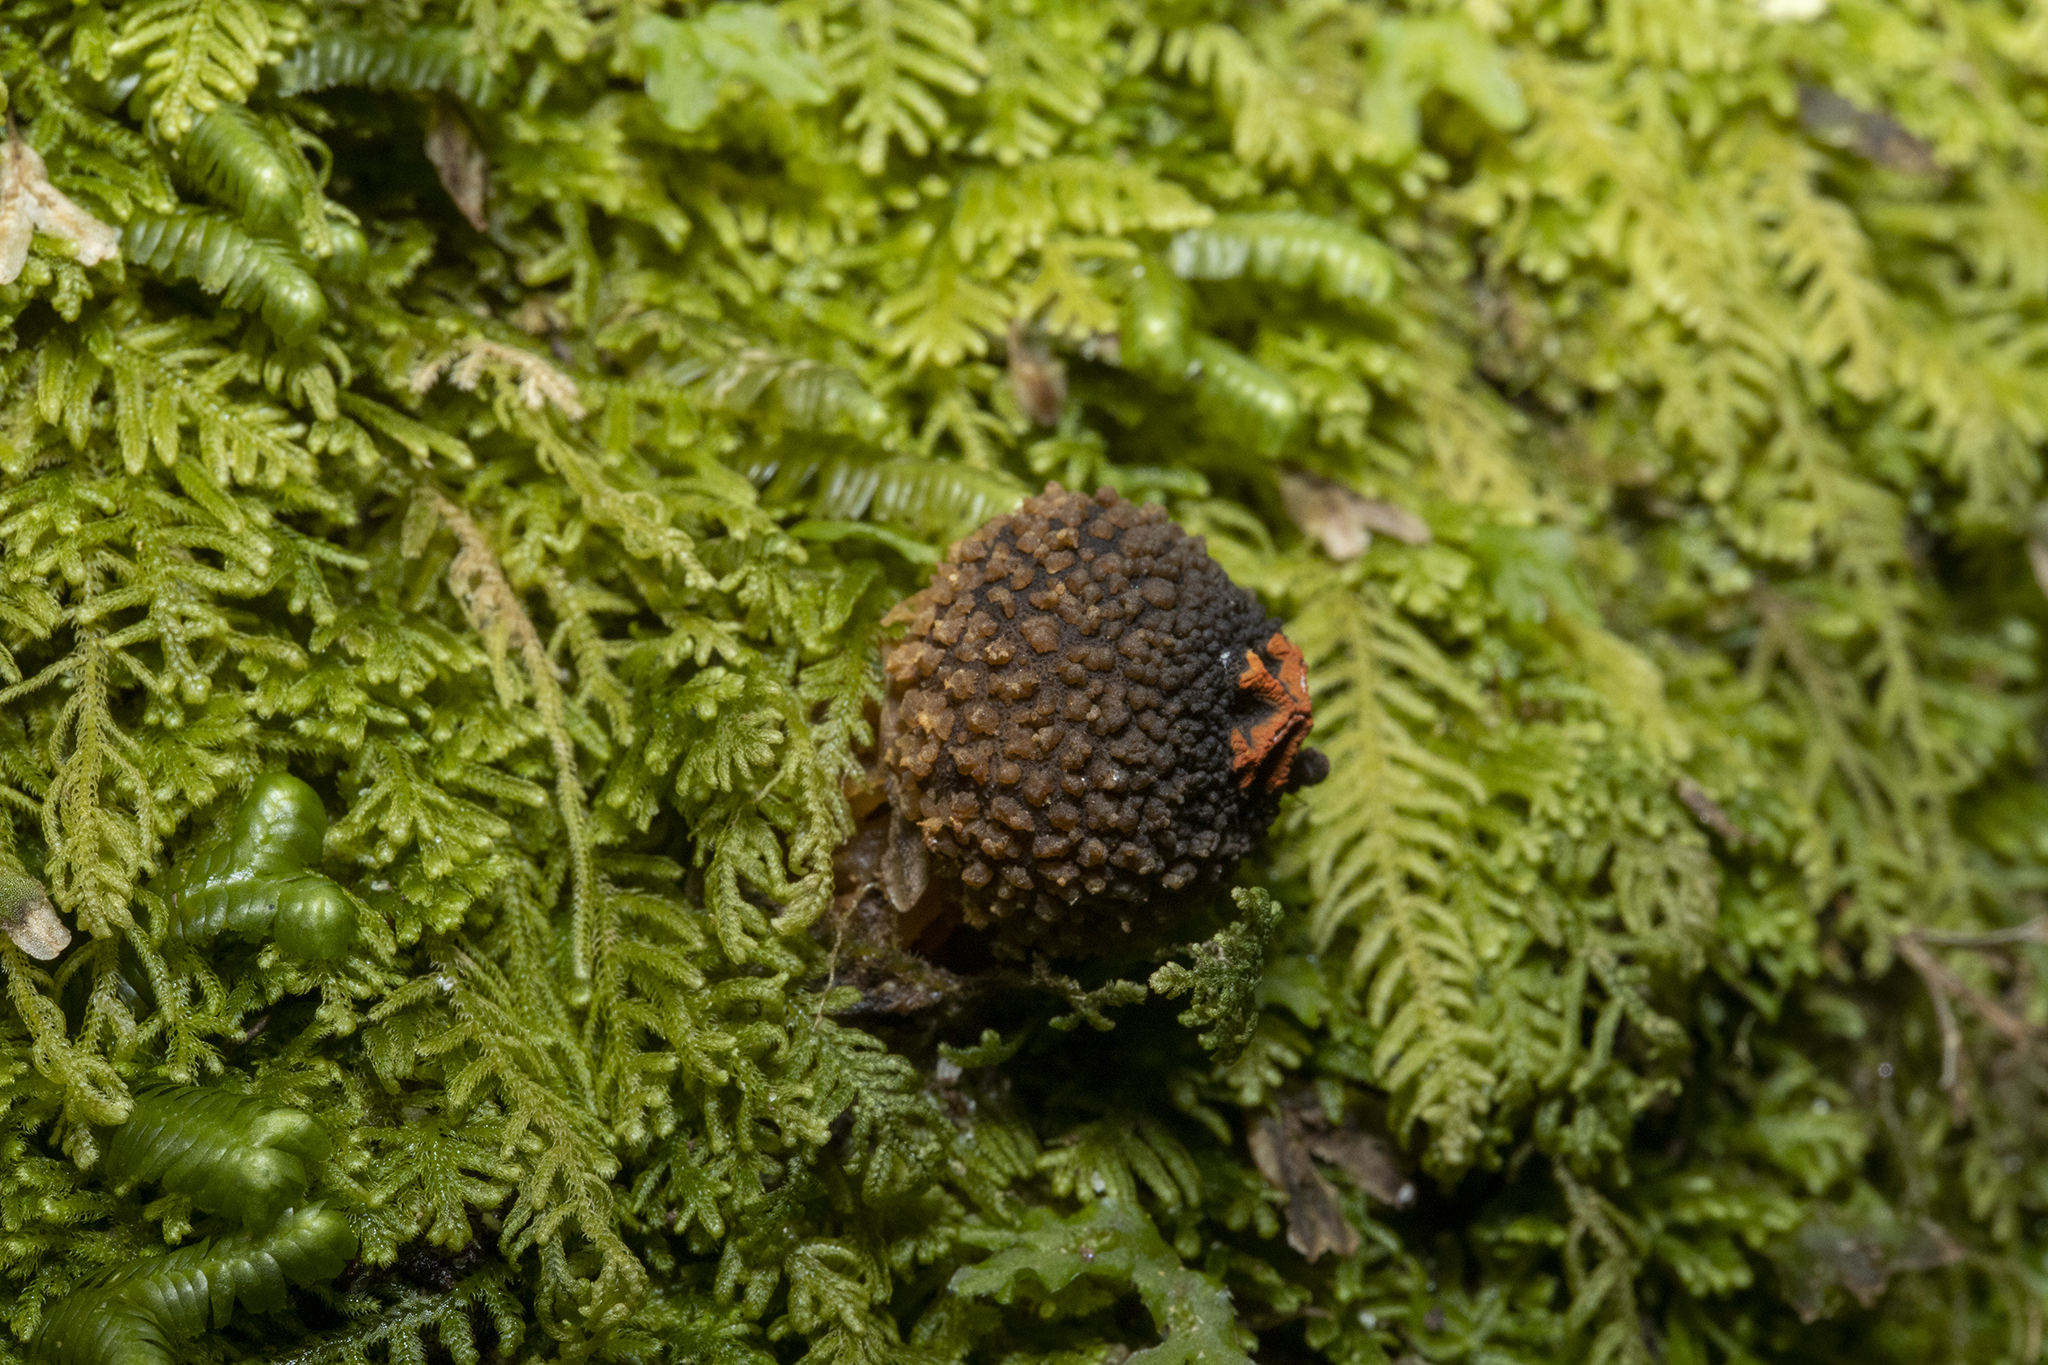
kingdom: Fungi
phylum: Basidiomycota
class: Agaricomycetes
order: Boletales
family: Calostomataceae
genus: Calostoma
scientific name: Calostoma rodwayi
